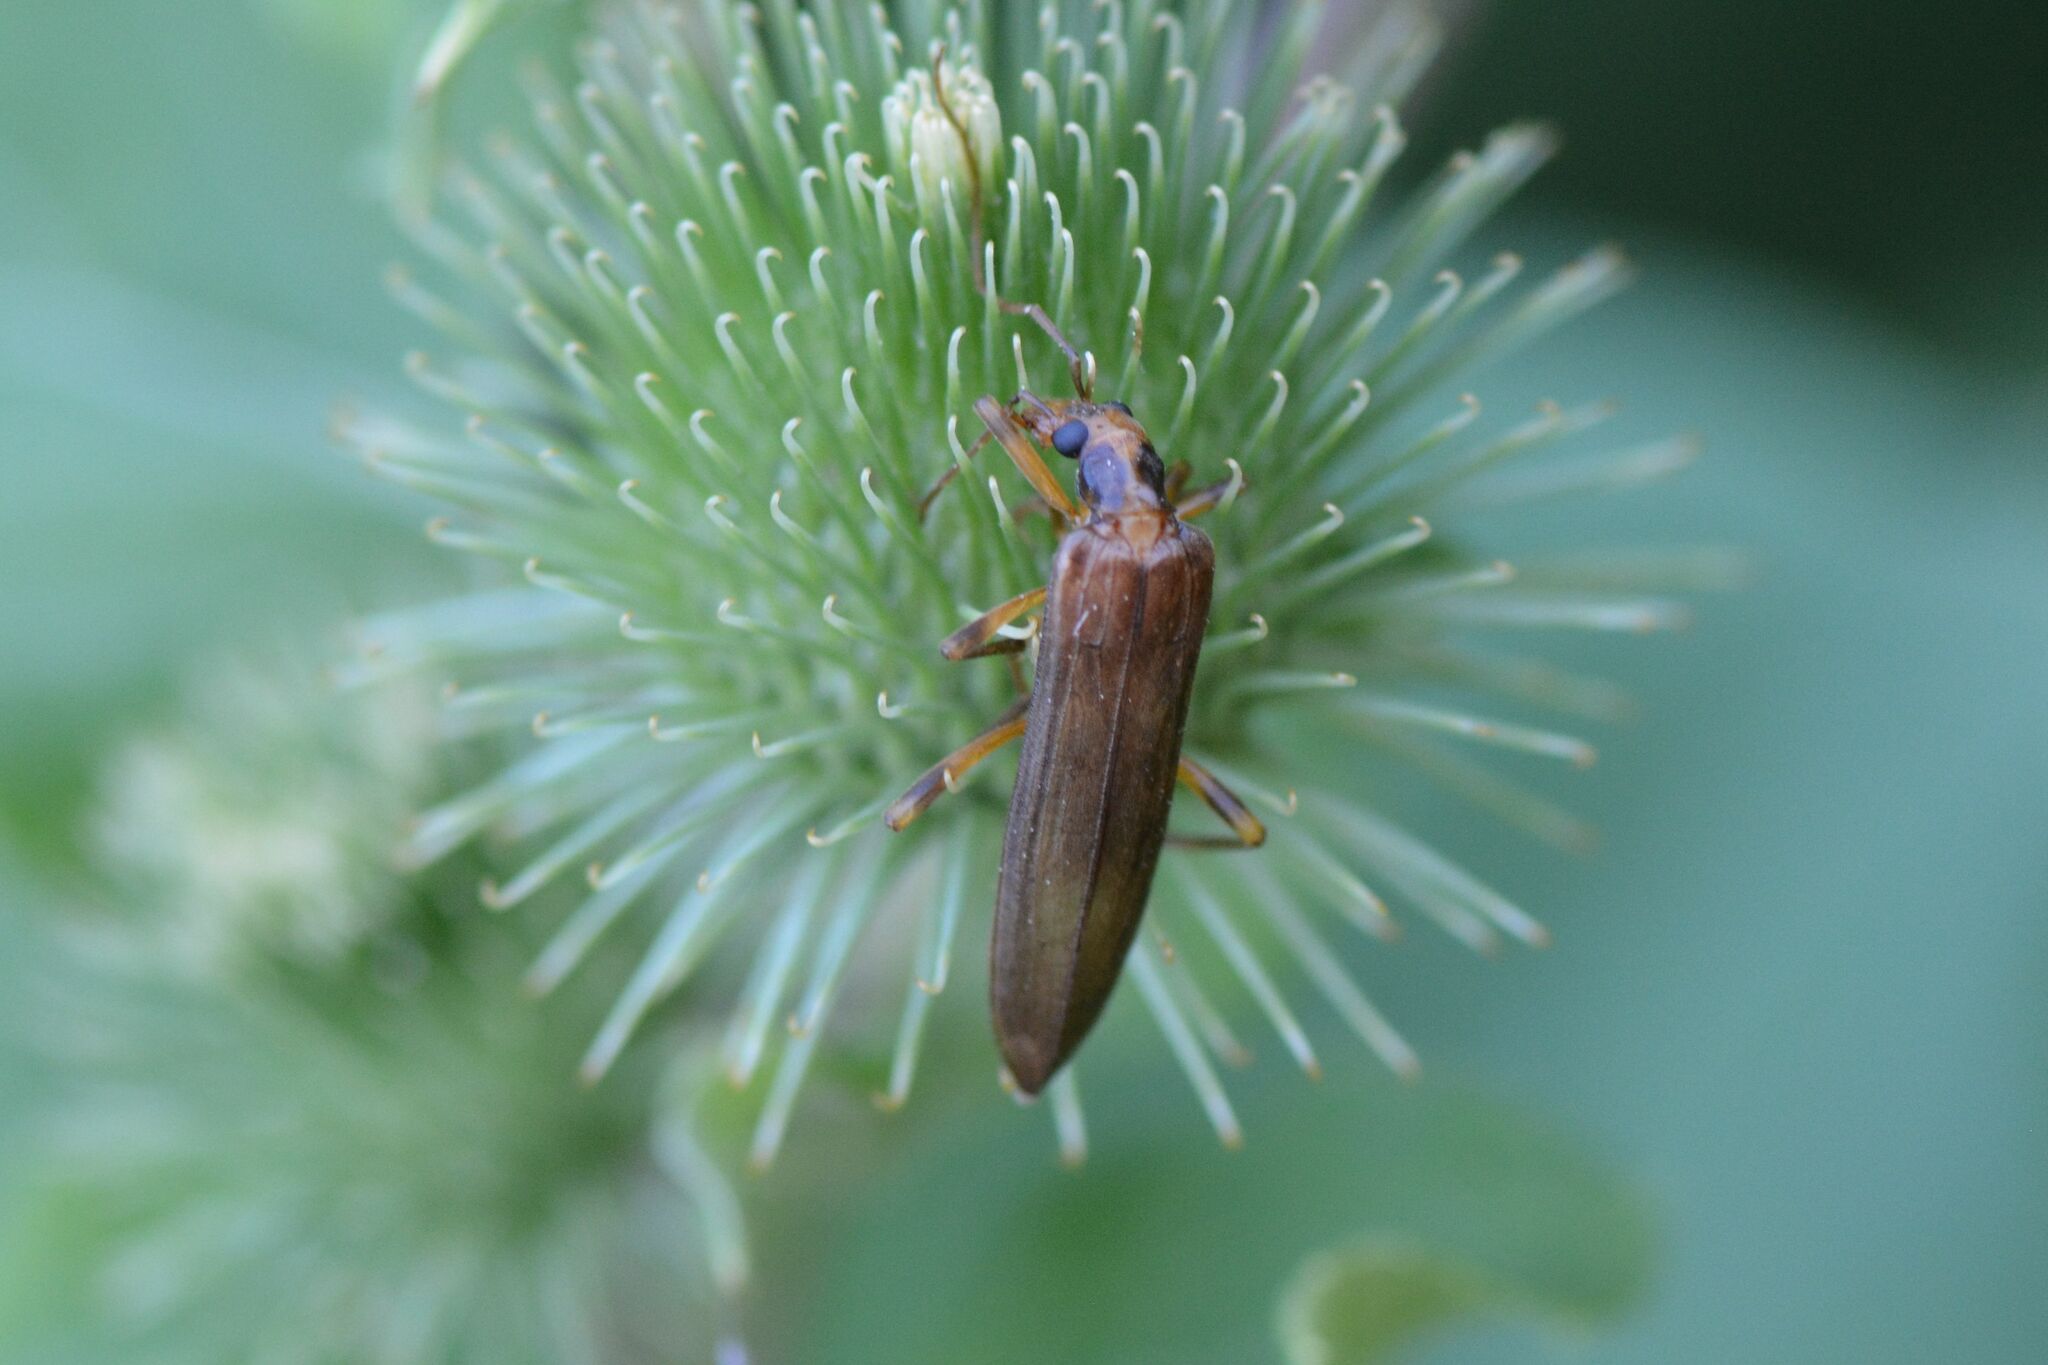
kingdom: Animalia
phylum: Arthropoda
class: Insecta
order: Coleoptera
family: Oedemeridae
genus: Oedemera
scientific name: Oedemera femoralis
